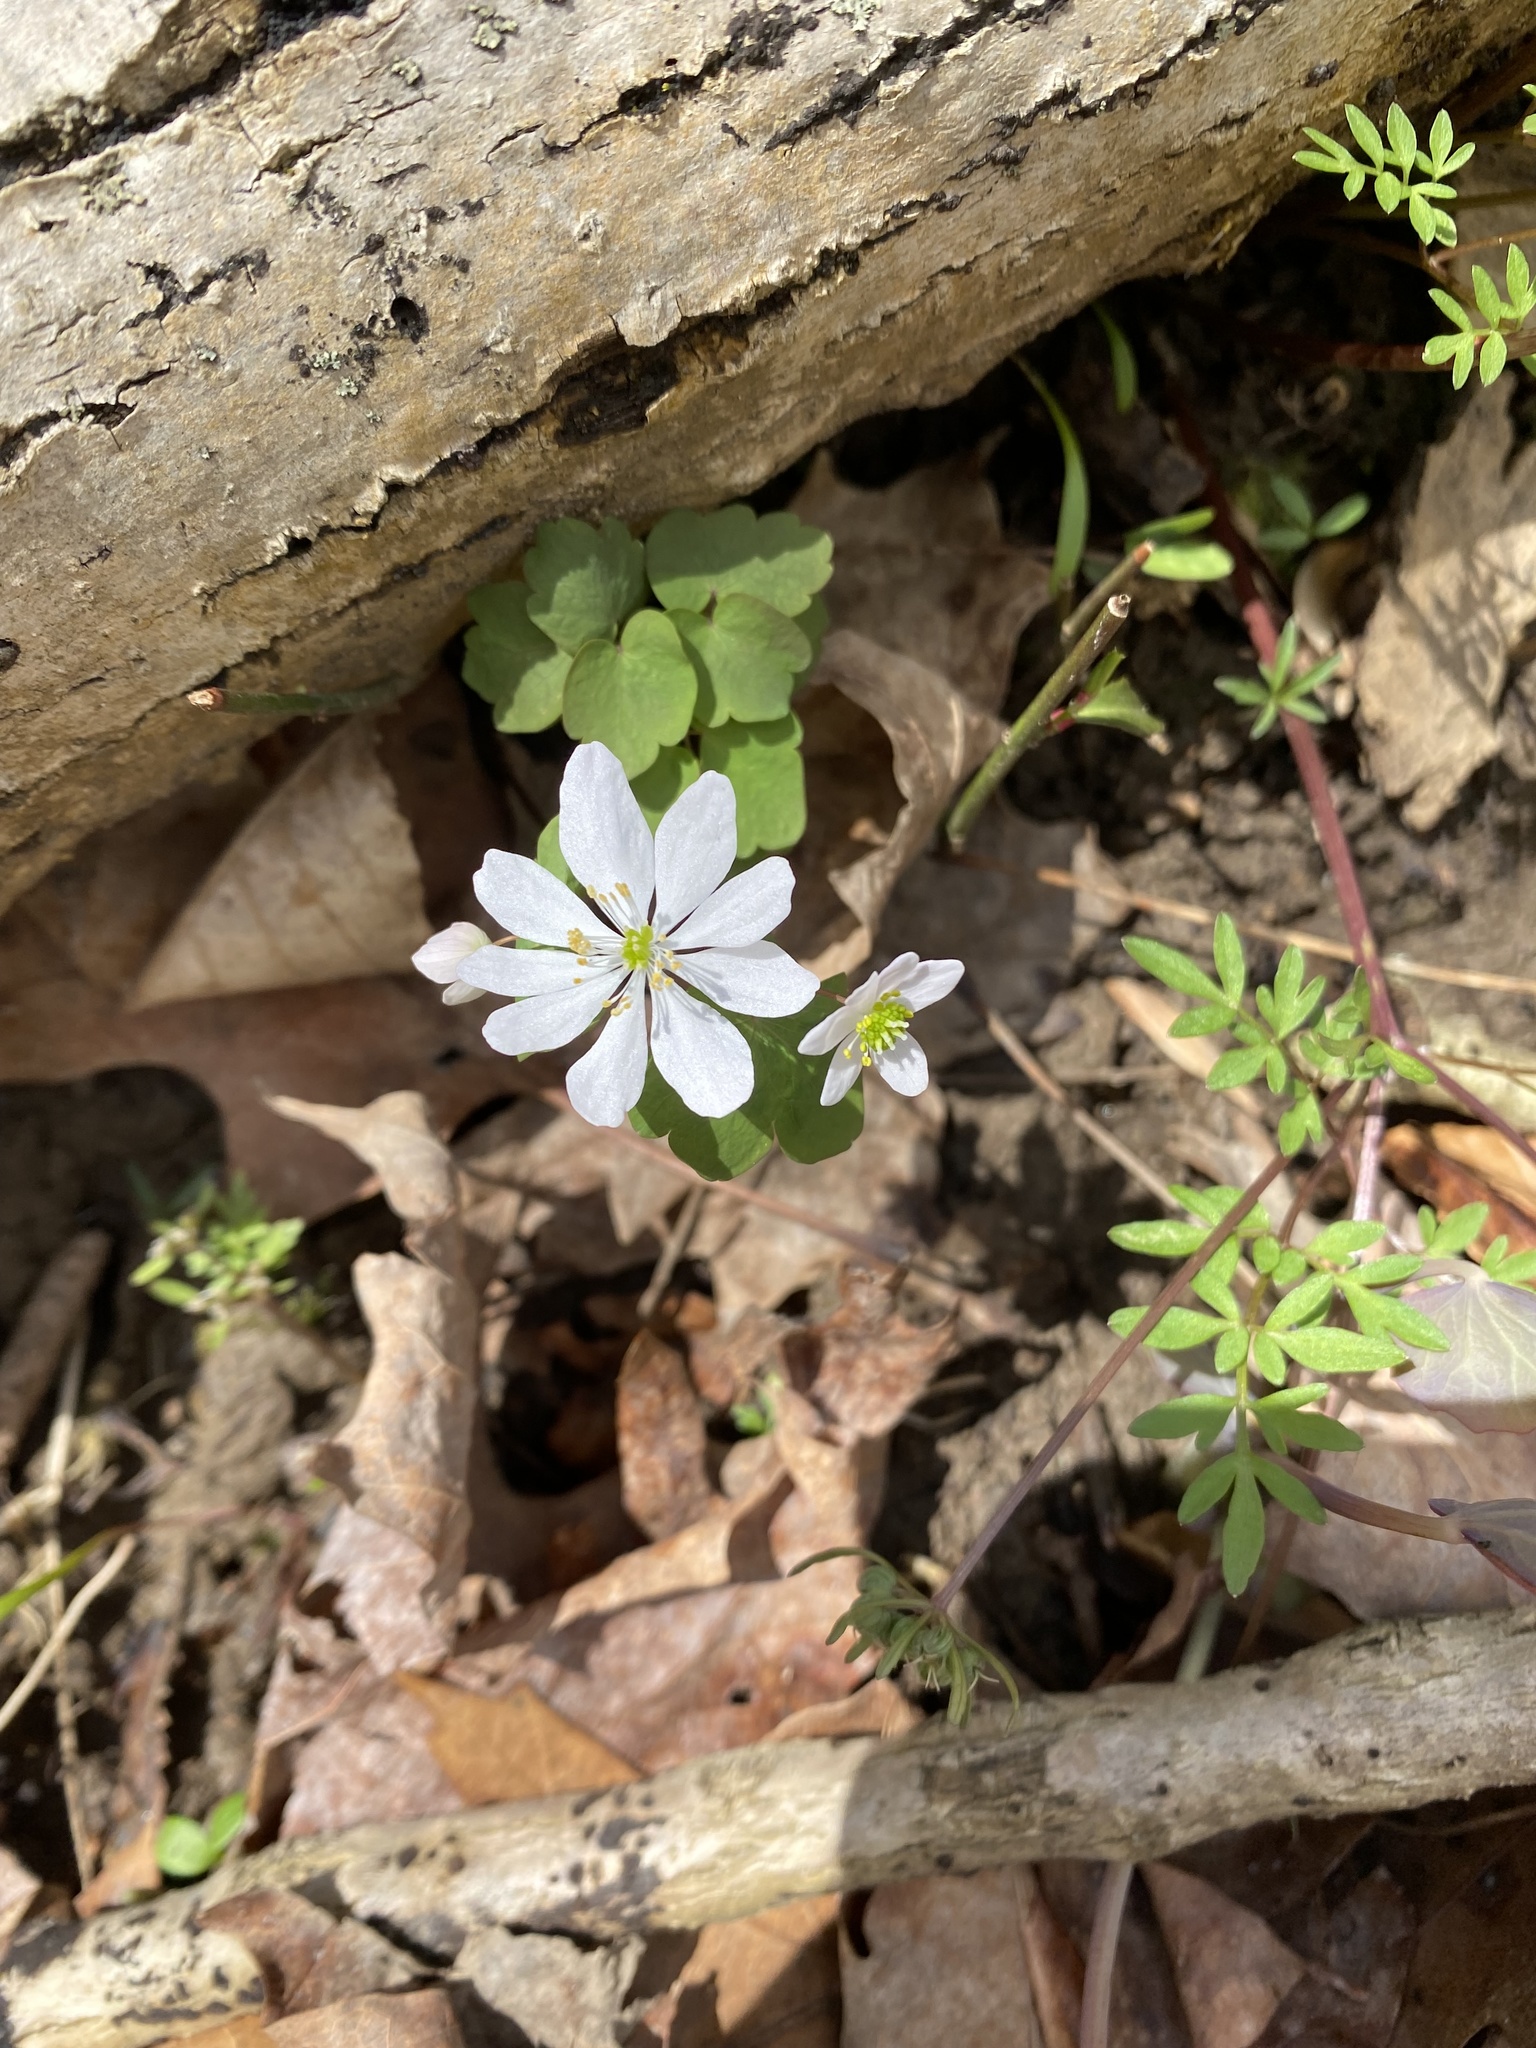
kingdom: Plantae
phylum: Tracheophyta
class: Magnoliopsida
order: Ranunculales
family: Ranunculaceae
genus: Thalictrum
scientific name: Thalictrum thalictroides
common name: Rue-anemone
